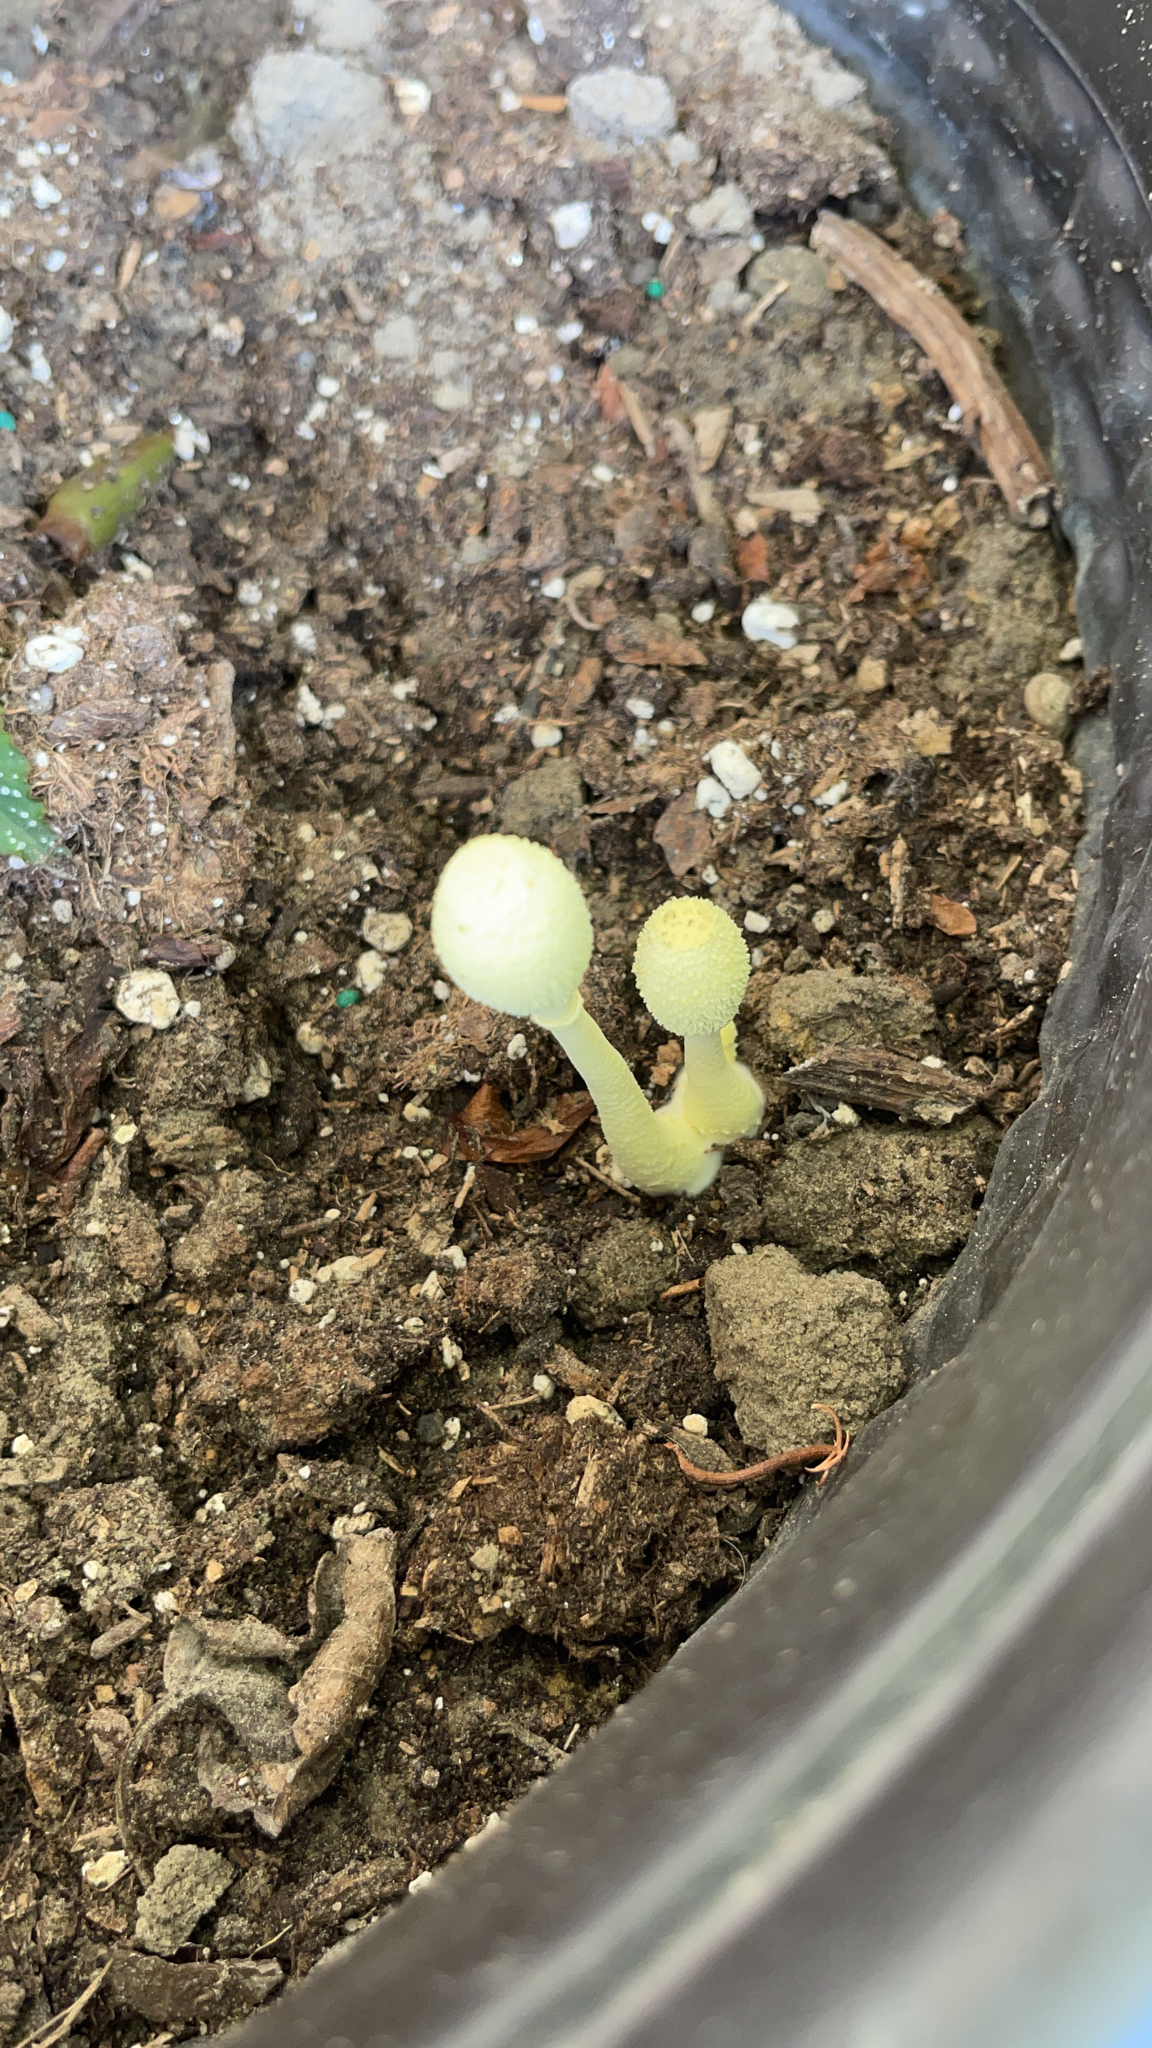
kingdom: Fungi
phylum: Basidiomycota
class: Agaricomycetes
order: Agaricales
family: Agaricaceae
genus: Leucocoprinus
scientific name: Leucocoprinus birnbaumii
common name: Plantpot dapperling
